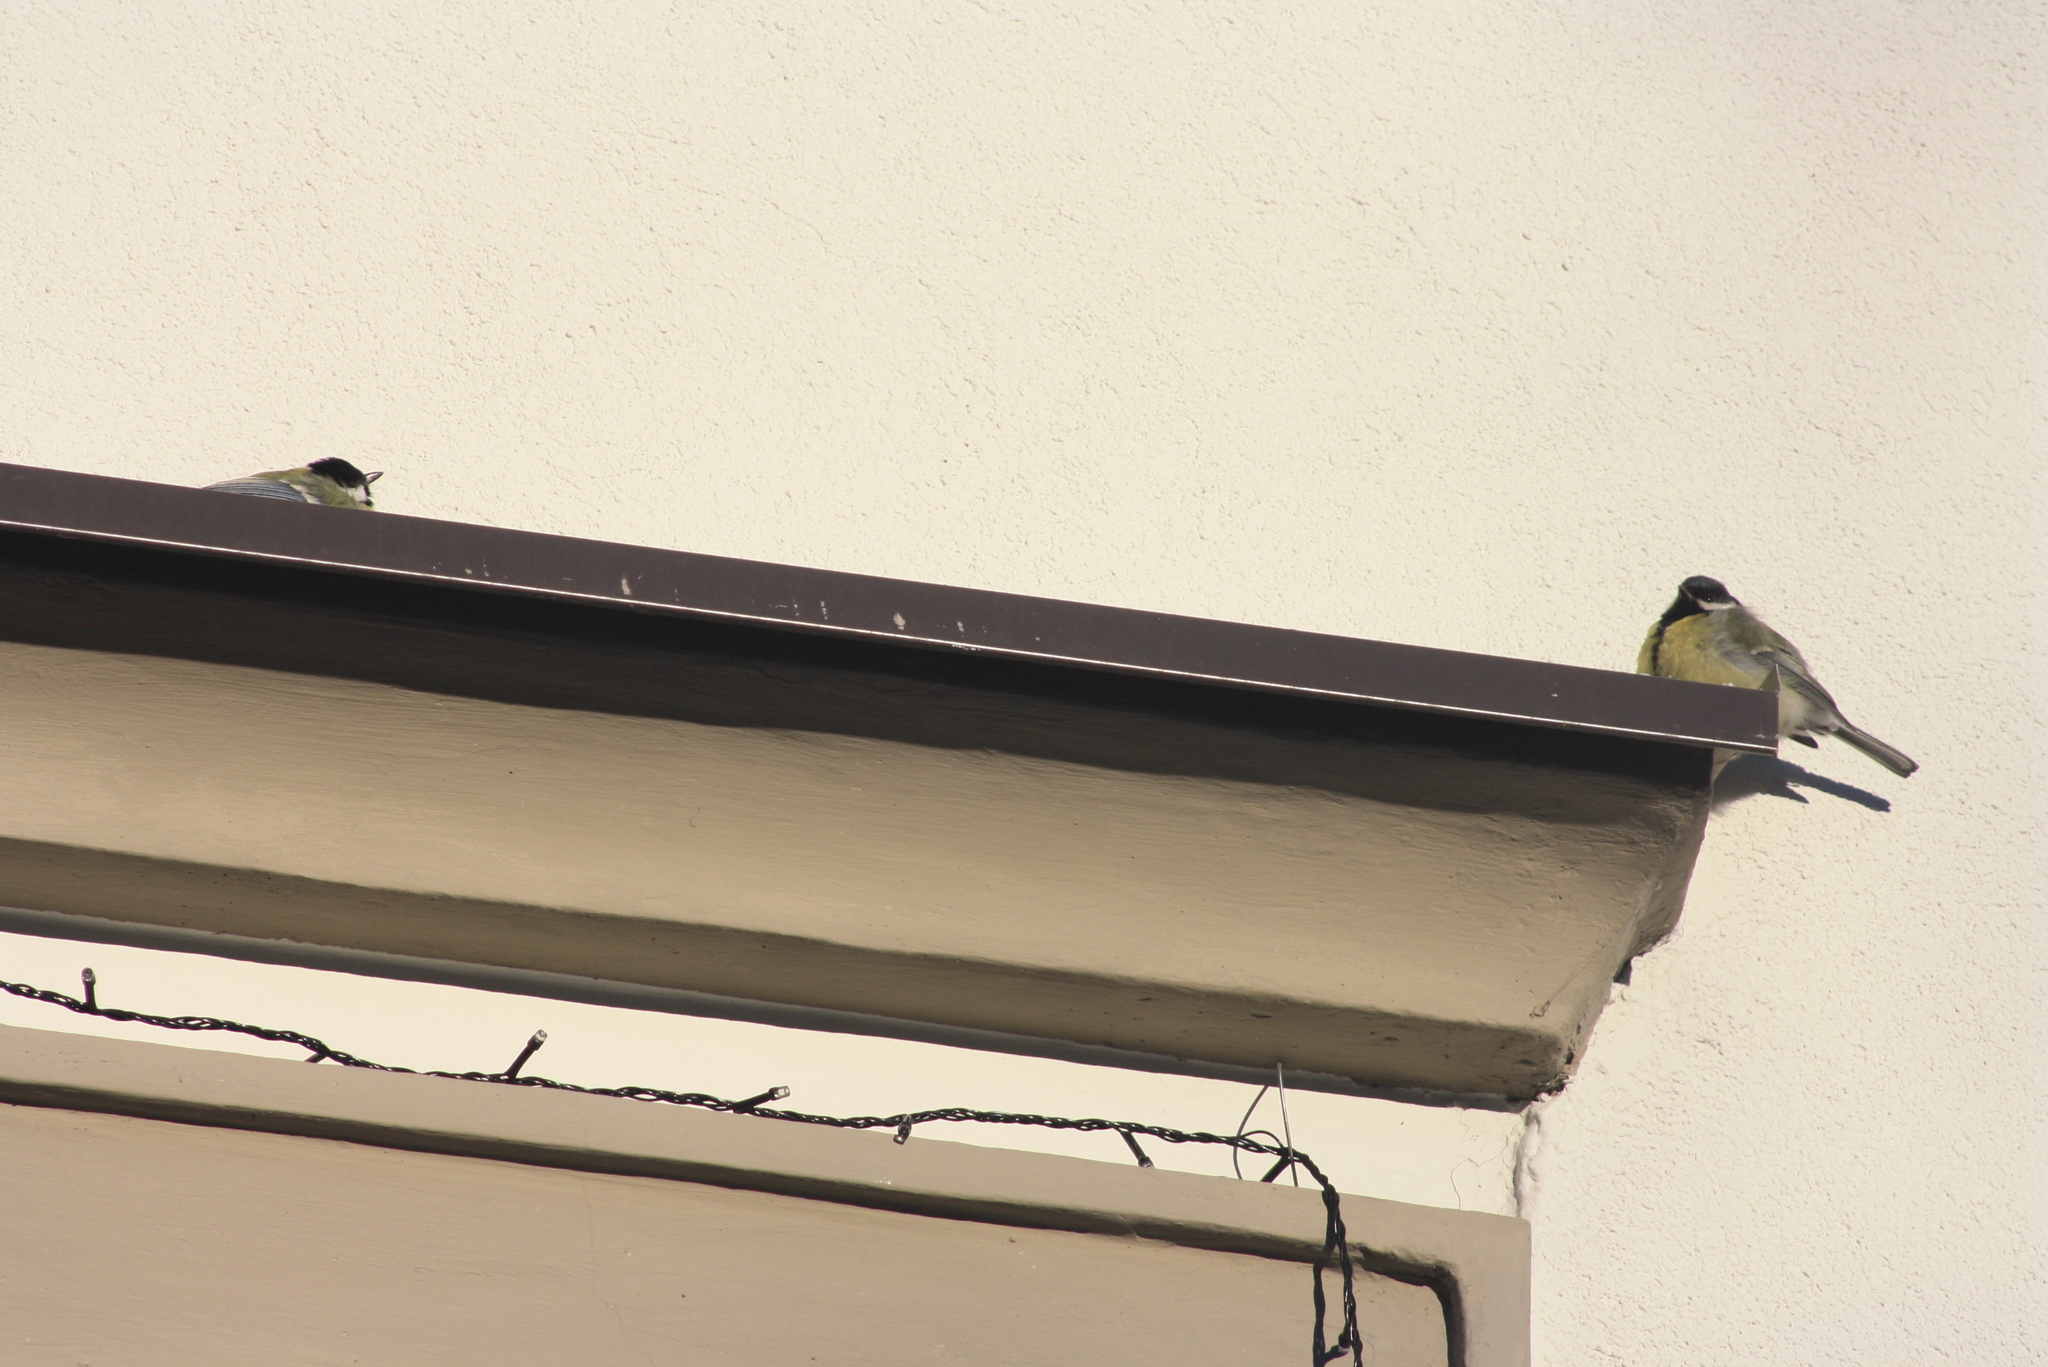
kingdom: Animalia
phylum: Chordata
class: Aves
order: Passeriformes
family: Paridae
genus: Parus
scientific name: Parus major
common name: Great tit
